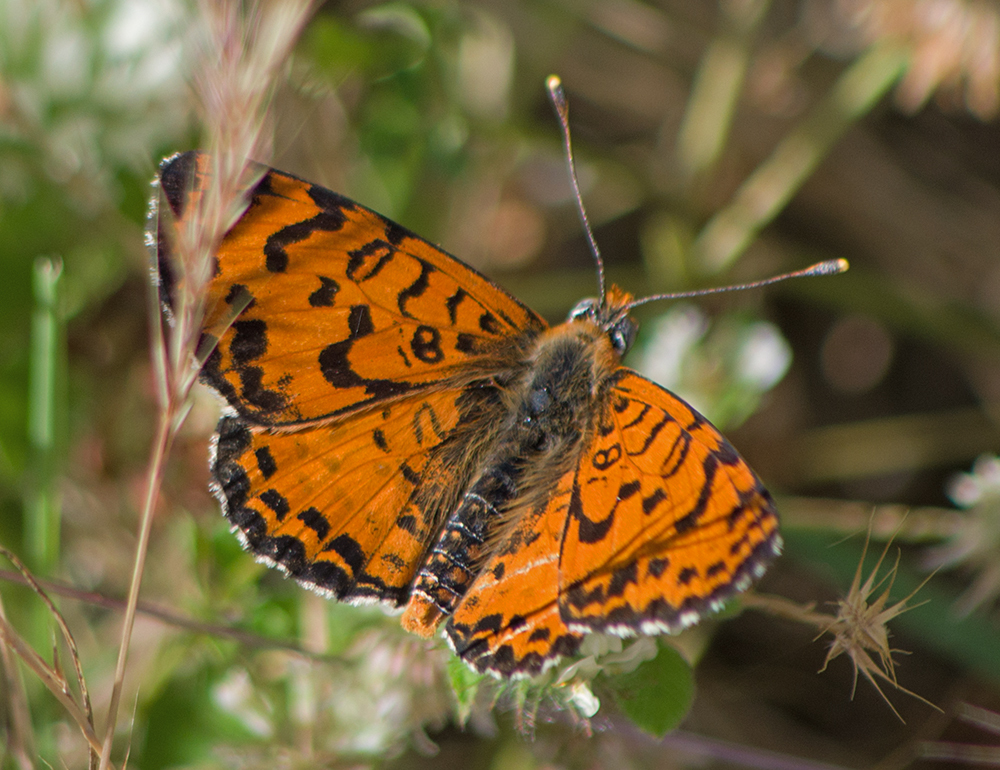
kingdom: Animalia
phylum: Arthropoda
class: Insecta
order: Lepidoptera
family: Nymphalidae
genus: Melitaea
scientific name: Melitaea didyma
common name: Spotted fritillary
